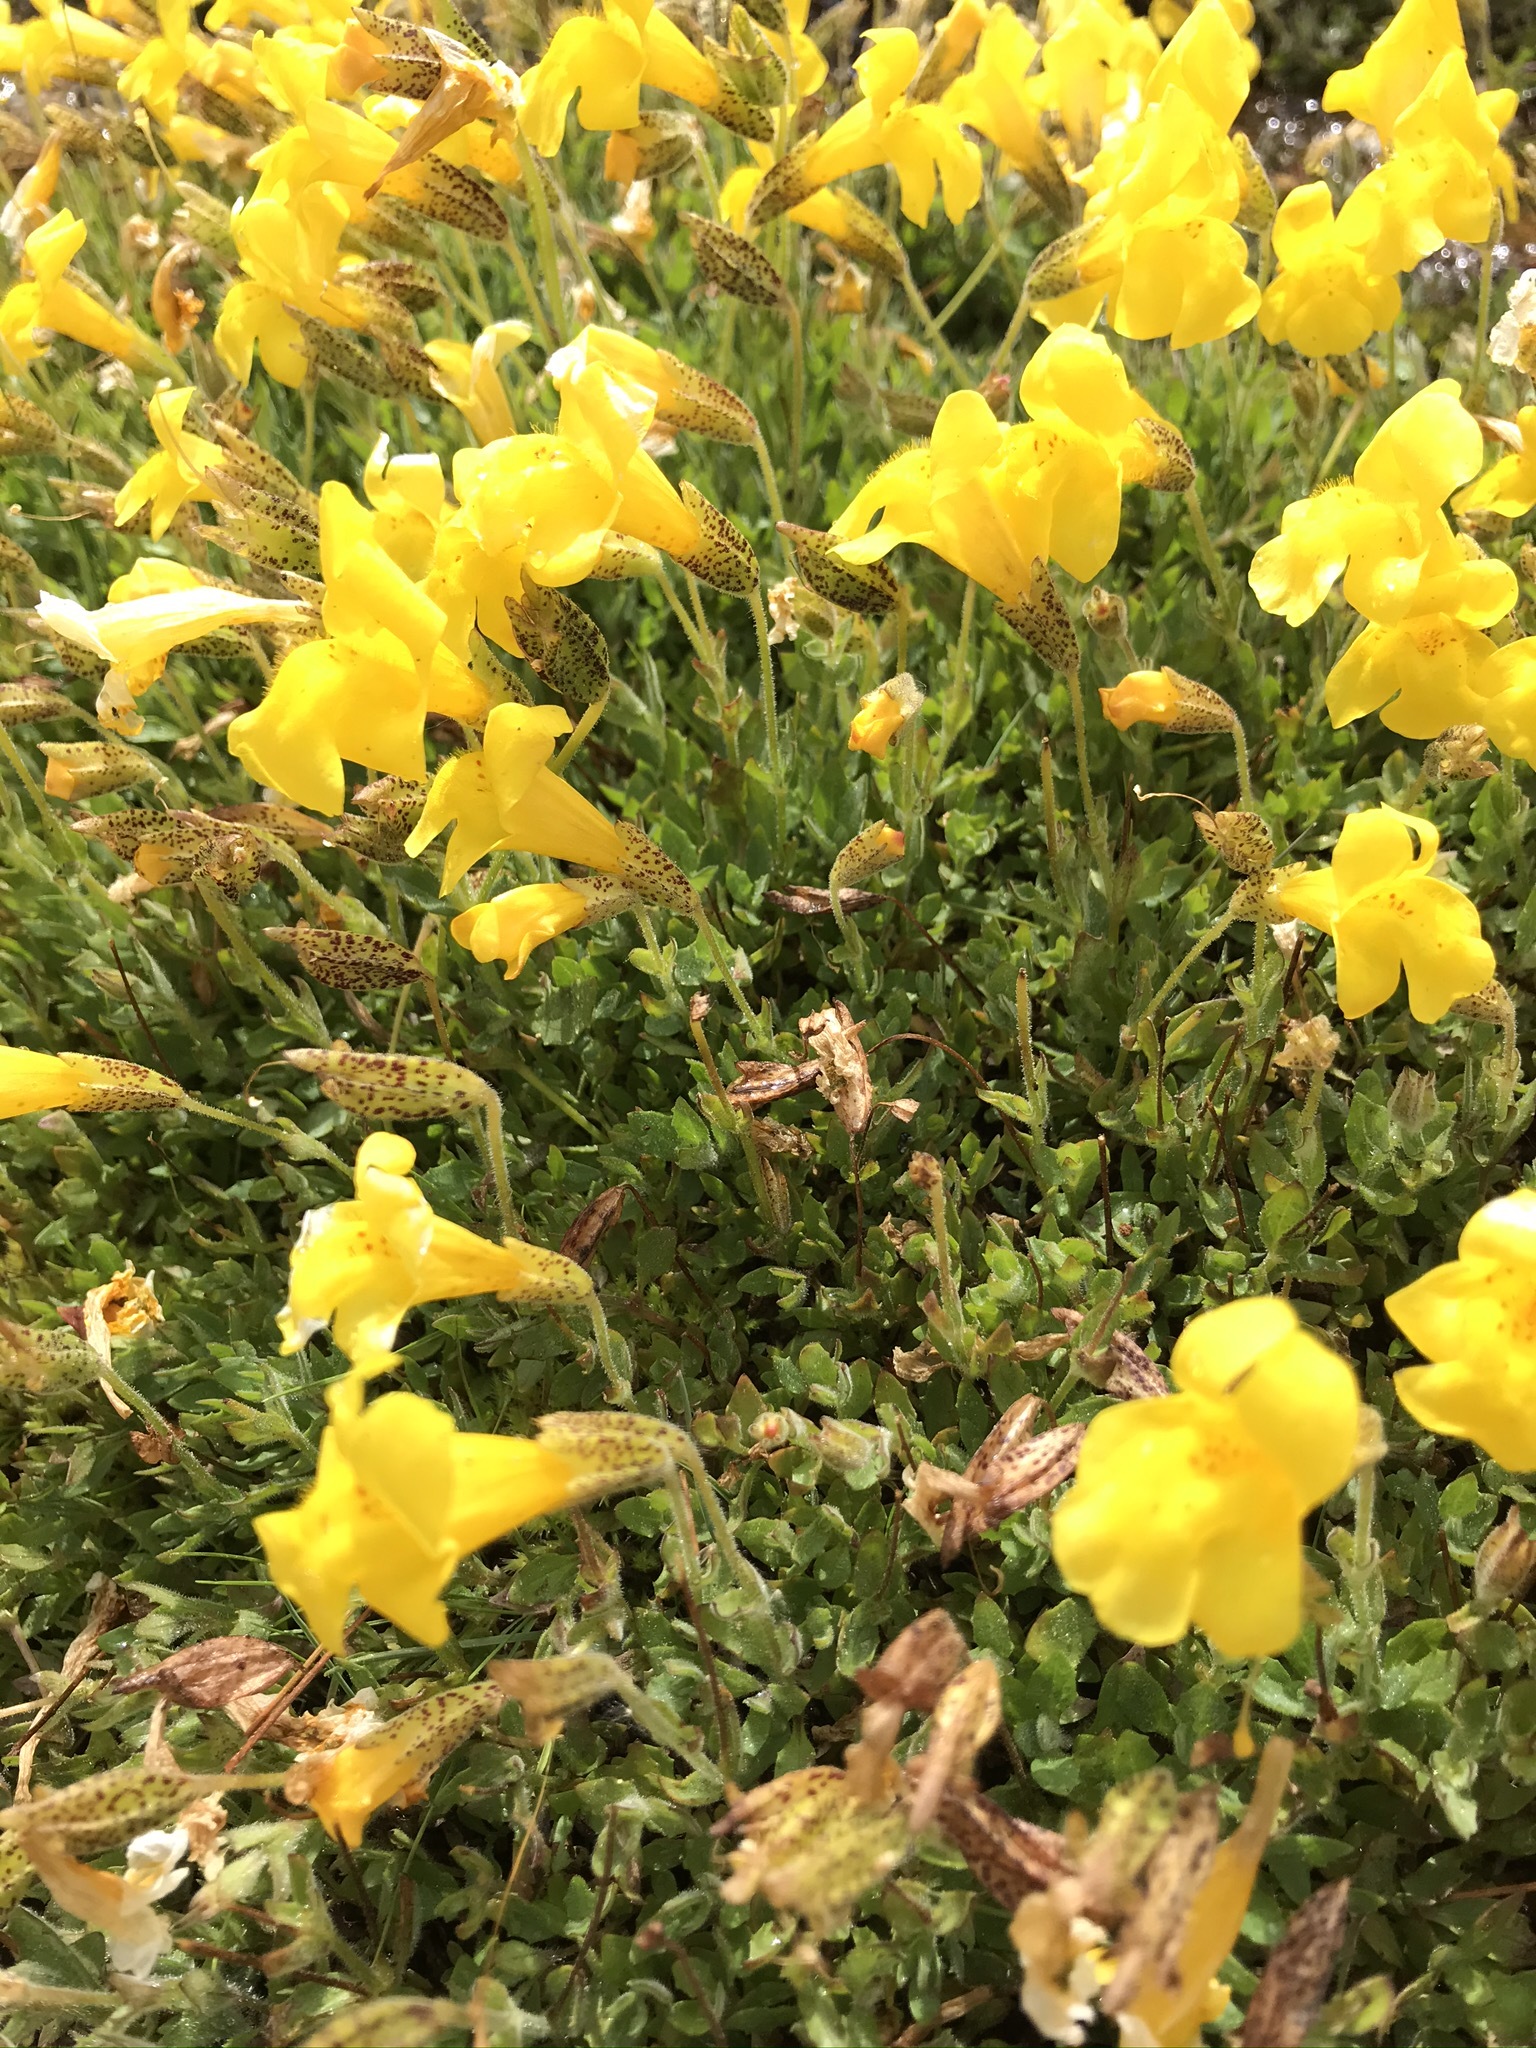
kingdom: Plantae
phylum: Tracheophyta
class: Magnoliopsida
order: Lamiales
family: Phrymaceae
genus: Erythranthe
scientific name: Erythranthe tilingii
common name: Subalpine monkey-flower
